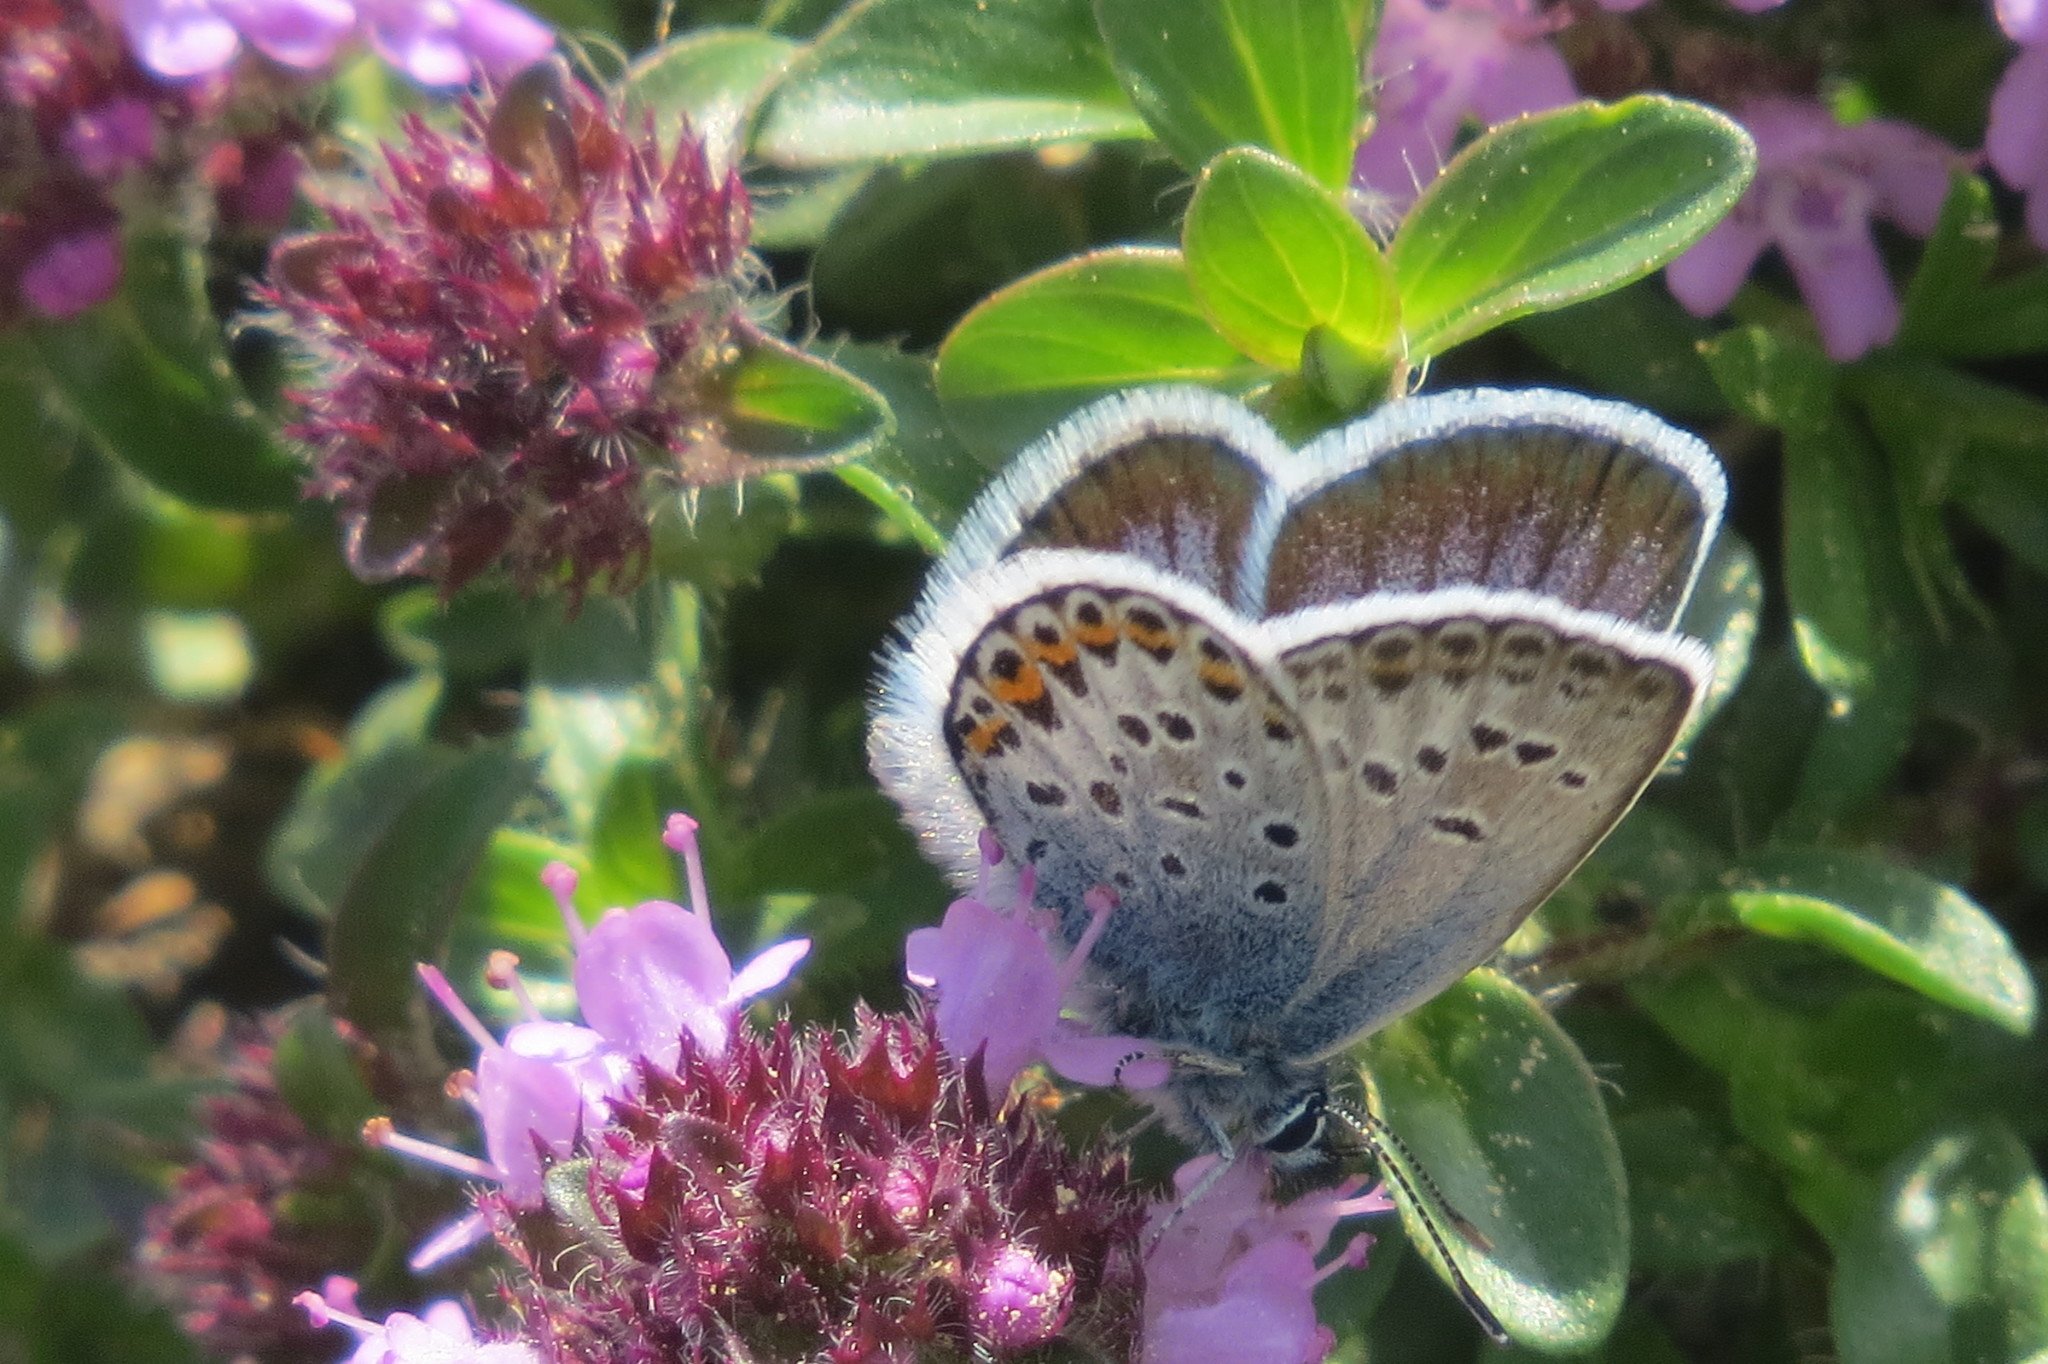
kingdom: Animalia
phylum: Arthropoda
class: Insecta
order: Lepidoptera
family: Lycaenidae
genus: Plebejus
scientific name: Plebejus argus
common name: Silver-studded blue
